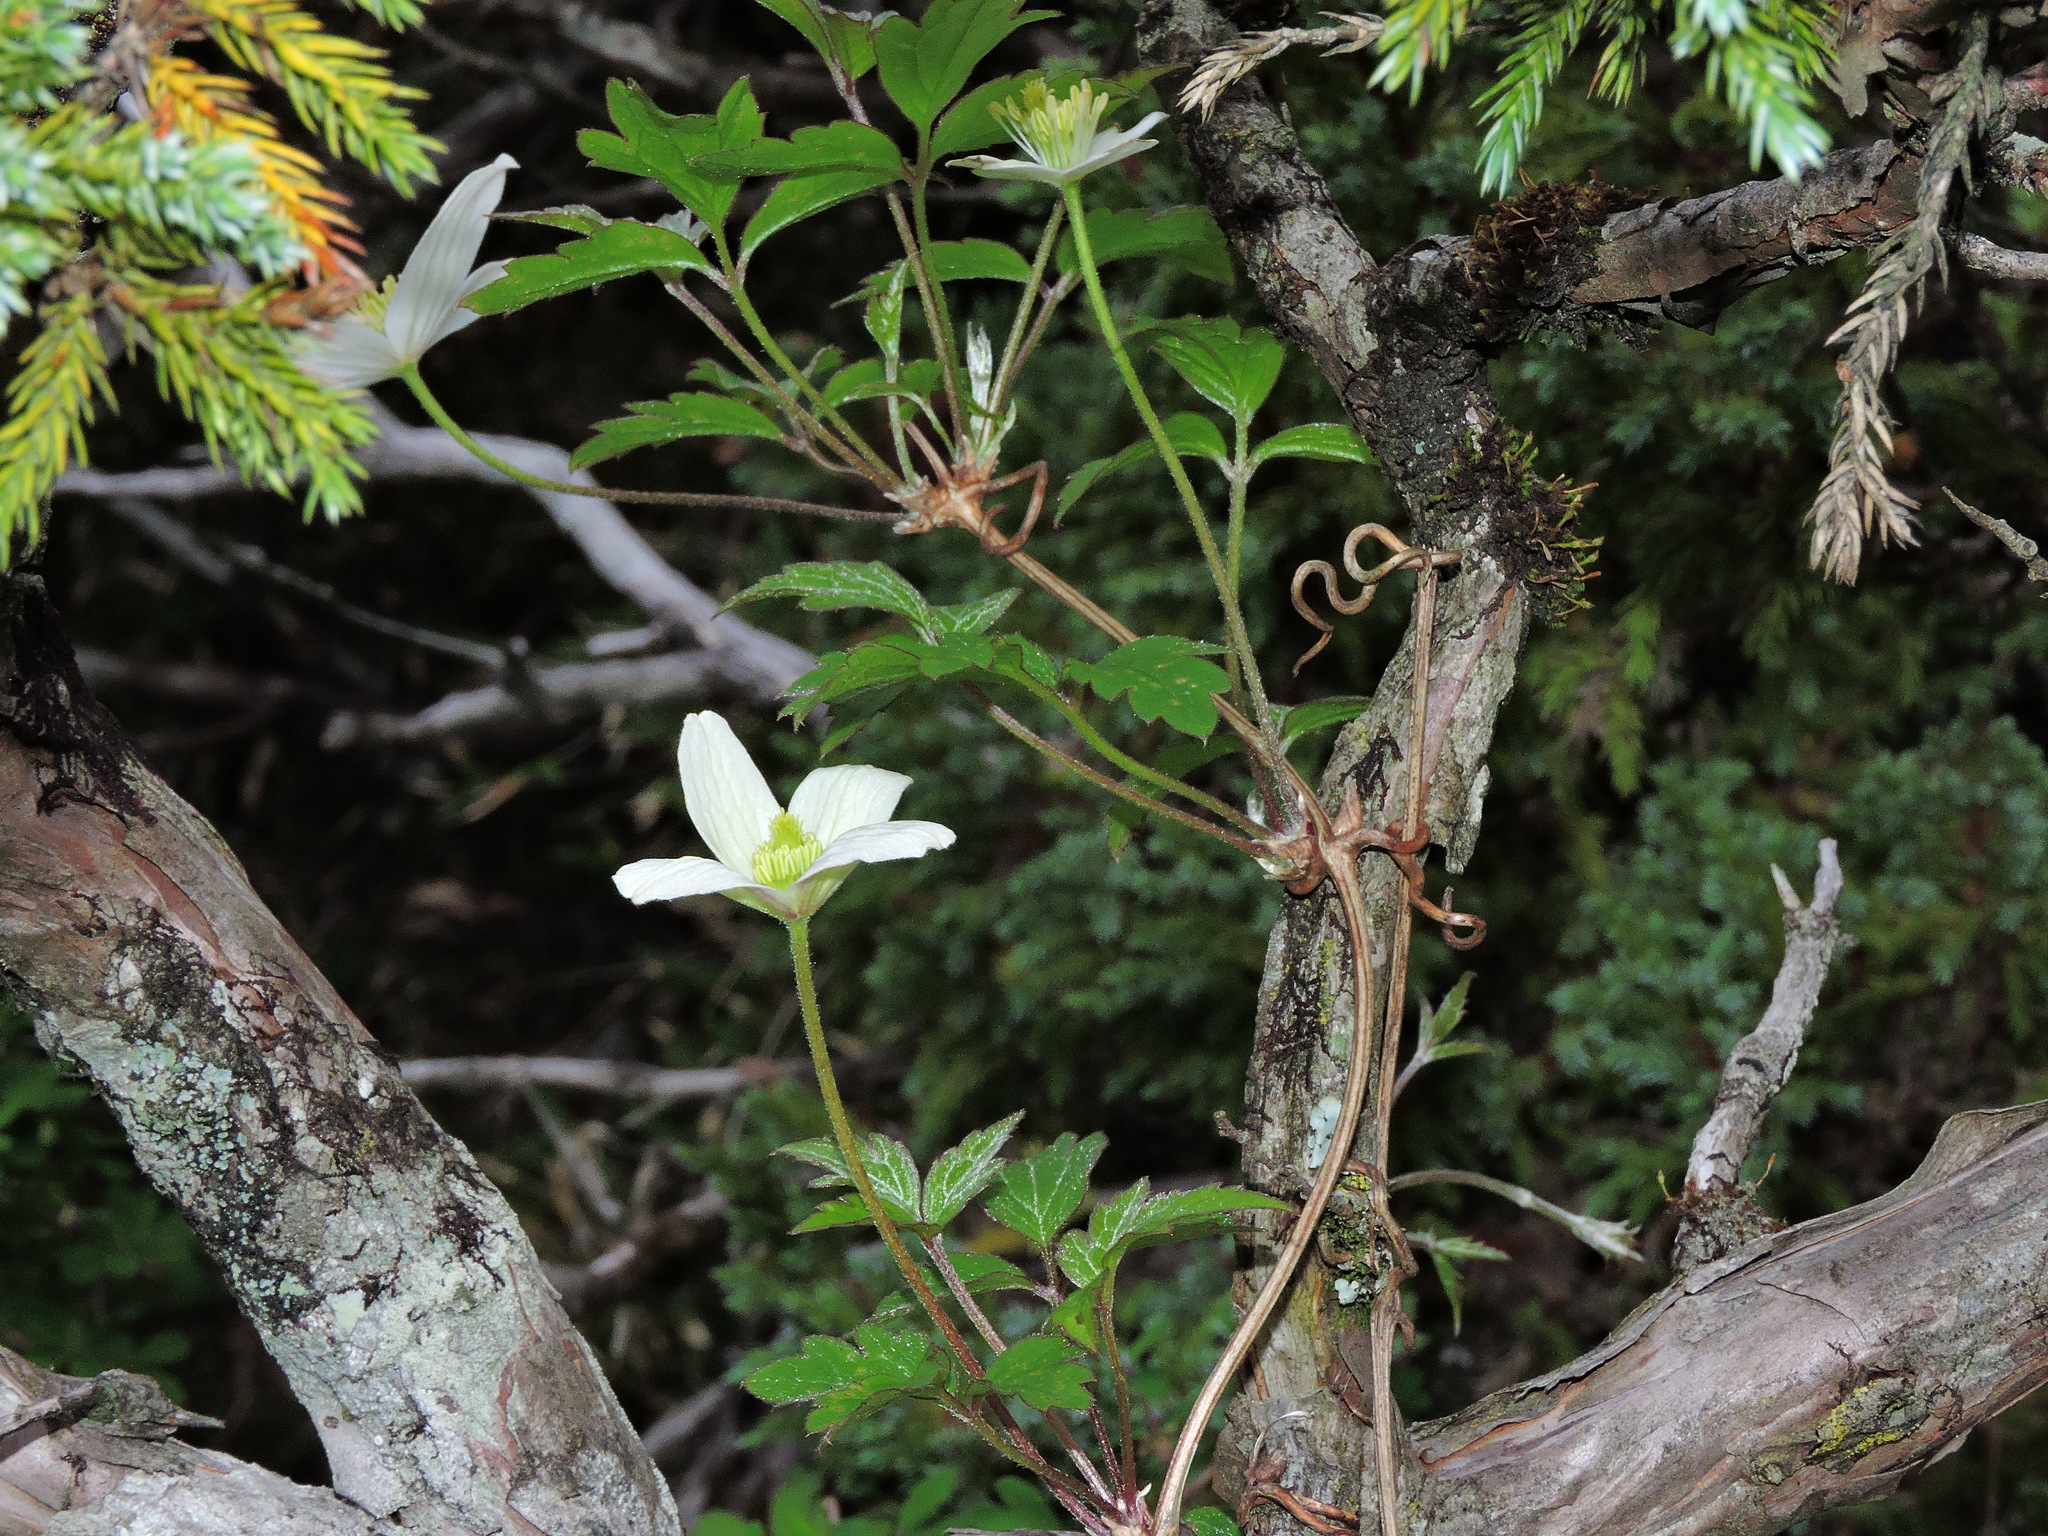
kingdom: Plantae
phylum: Tracheophyta
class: Magnoliopsida
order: Ranunculales
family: Ranunculaceae
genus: Clematis
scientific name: Clematis montana
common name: Himalayan clematis
